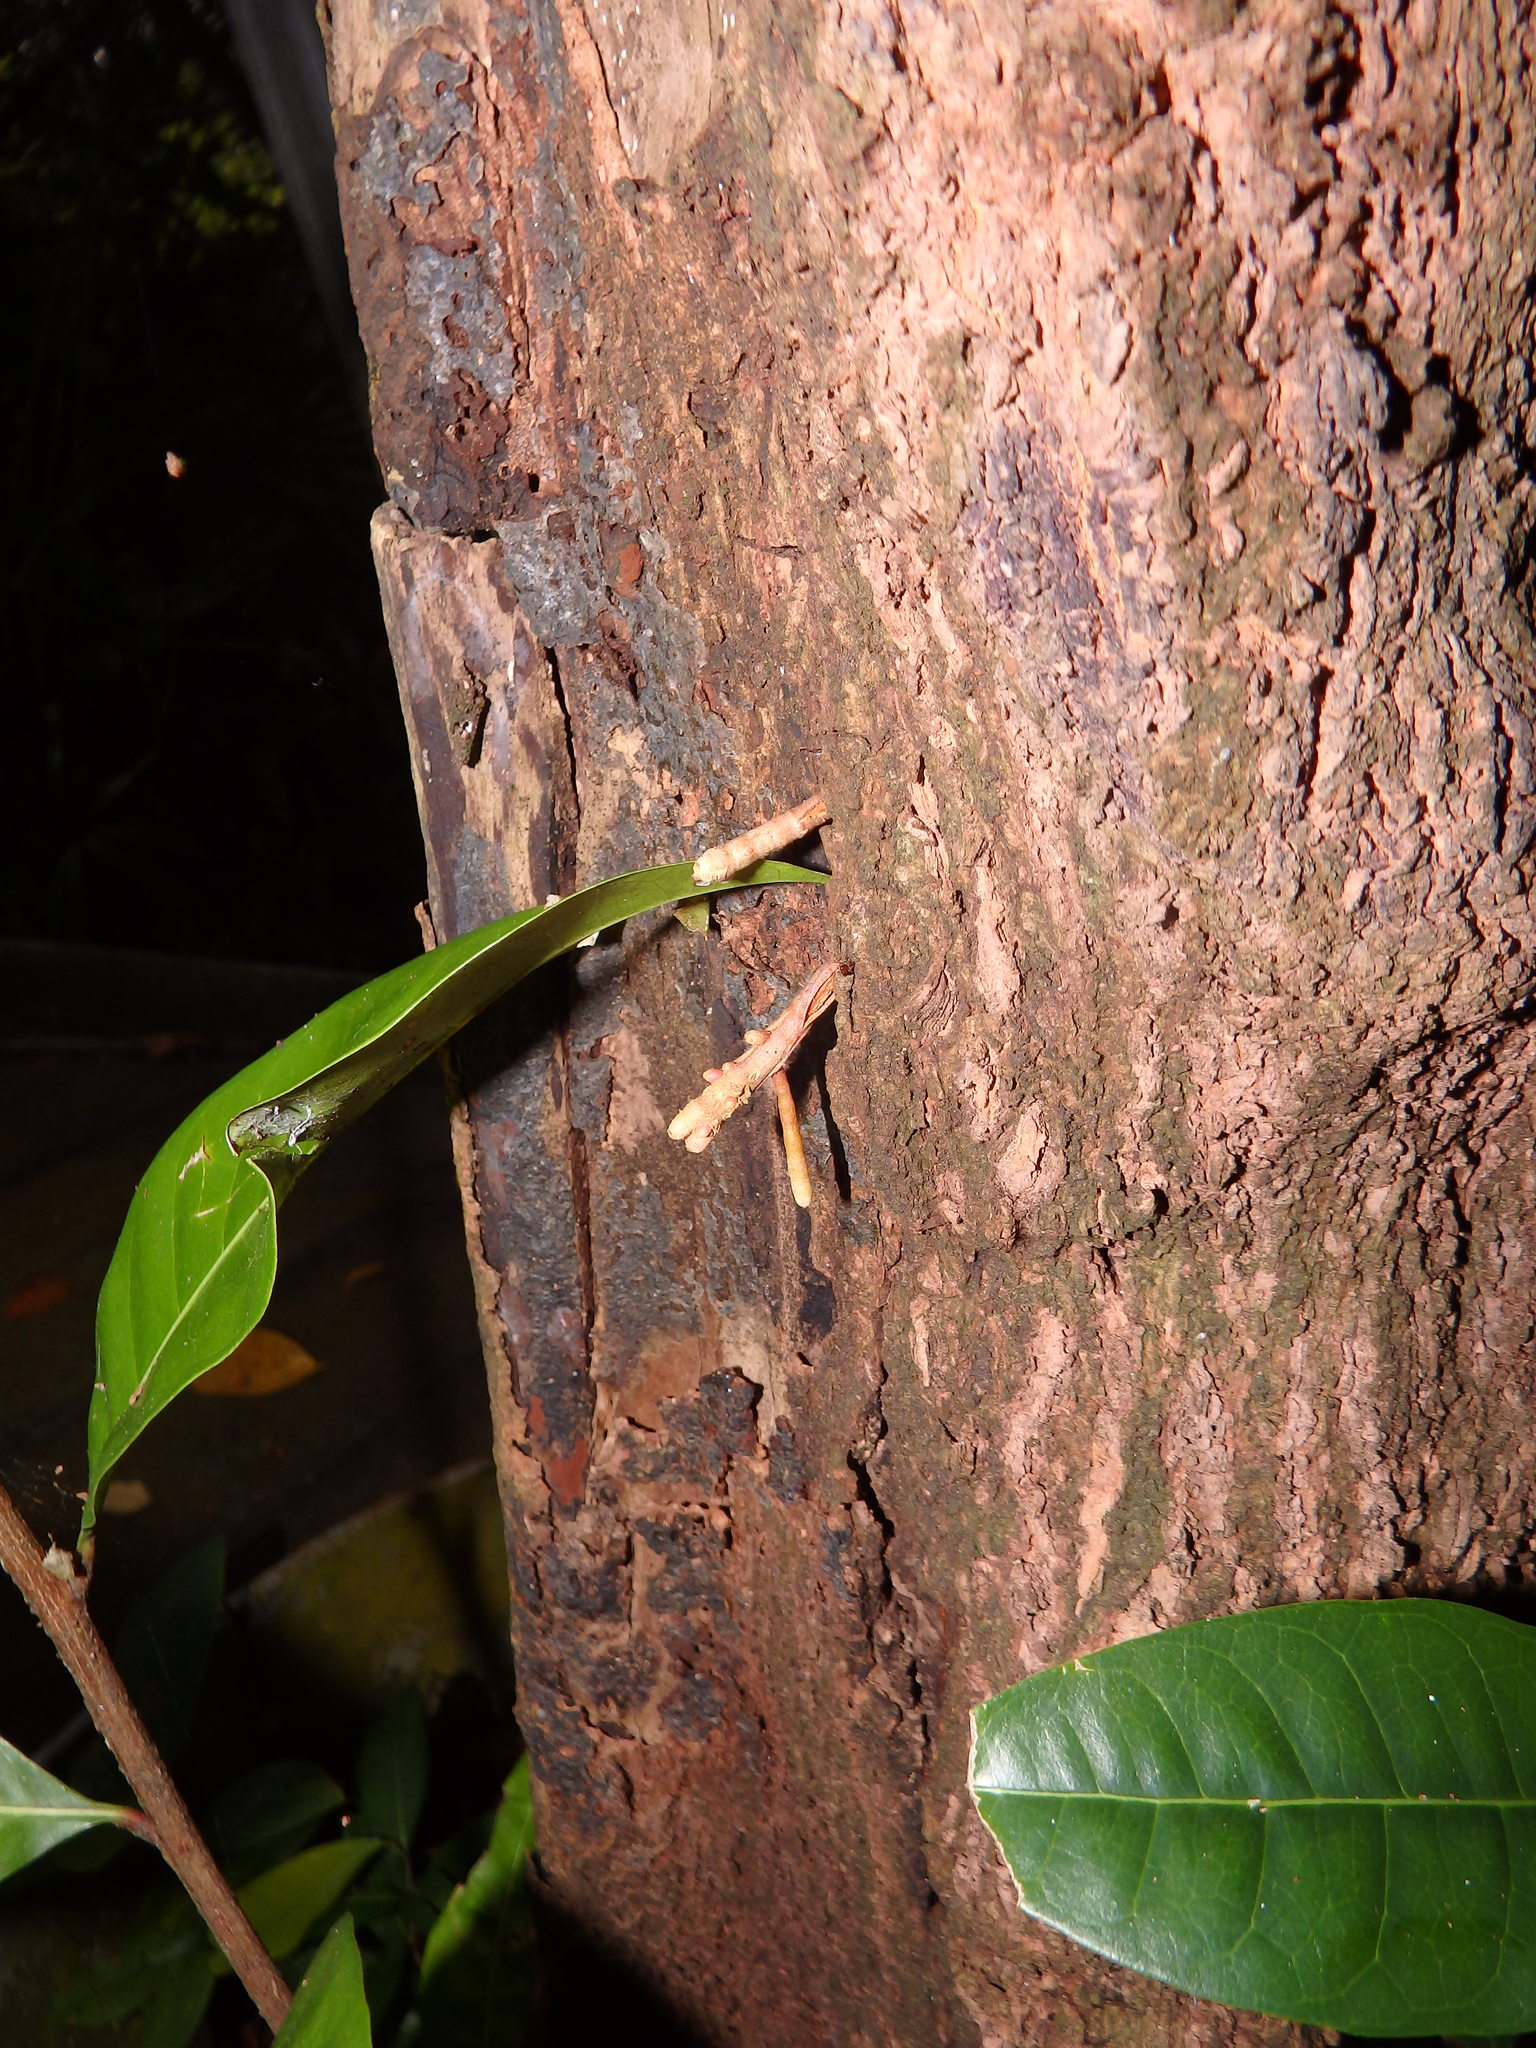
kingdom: Plantae
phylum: Tracheophyta
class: Magnoliopsida
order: Ericales
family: Sapotaceae
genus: Planchonella
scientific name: Planchonella obovata
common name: Black-ash
